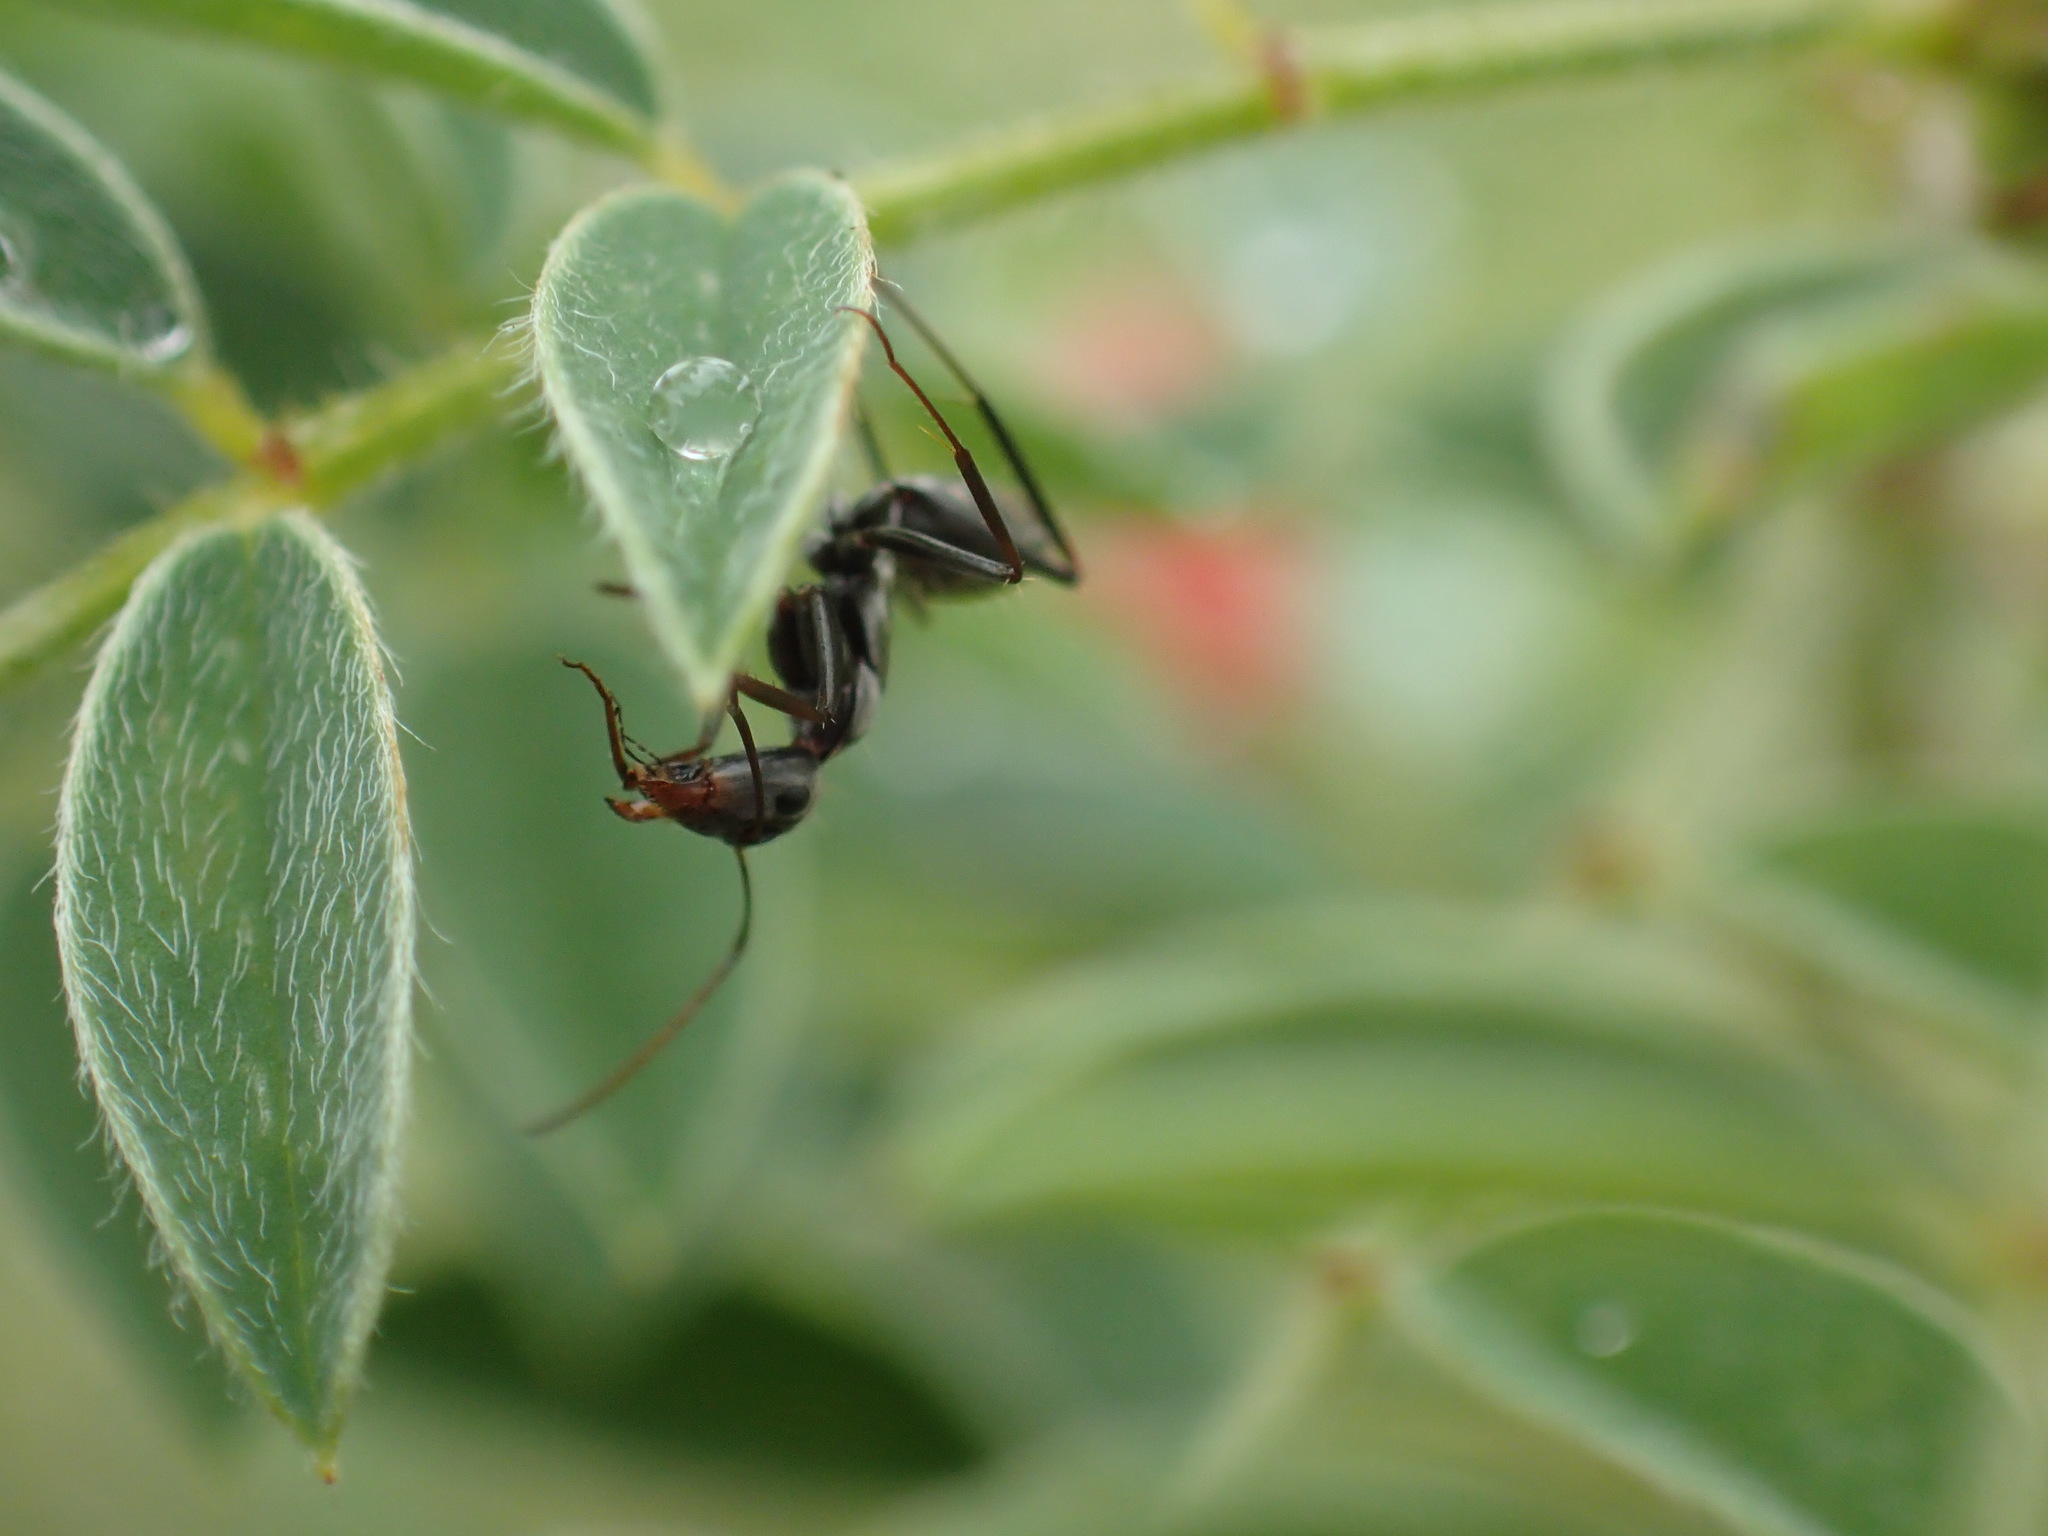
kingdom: Animalia
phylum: Arthropoda
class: Insecta
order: Hymenoptera
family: Formicidae
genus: Camponotus
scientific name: Camponotus vestitus
